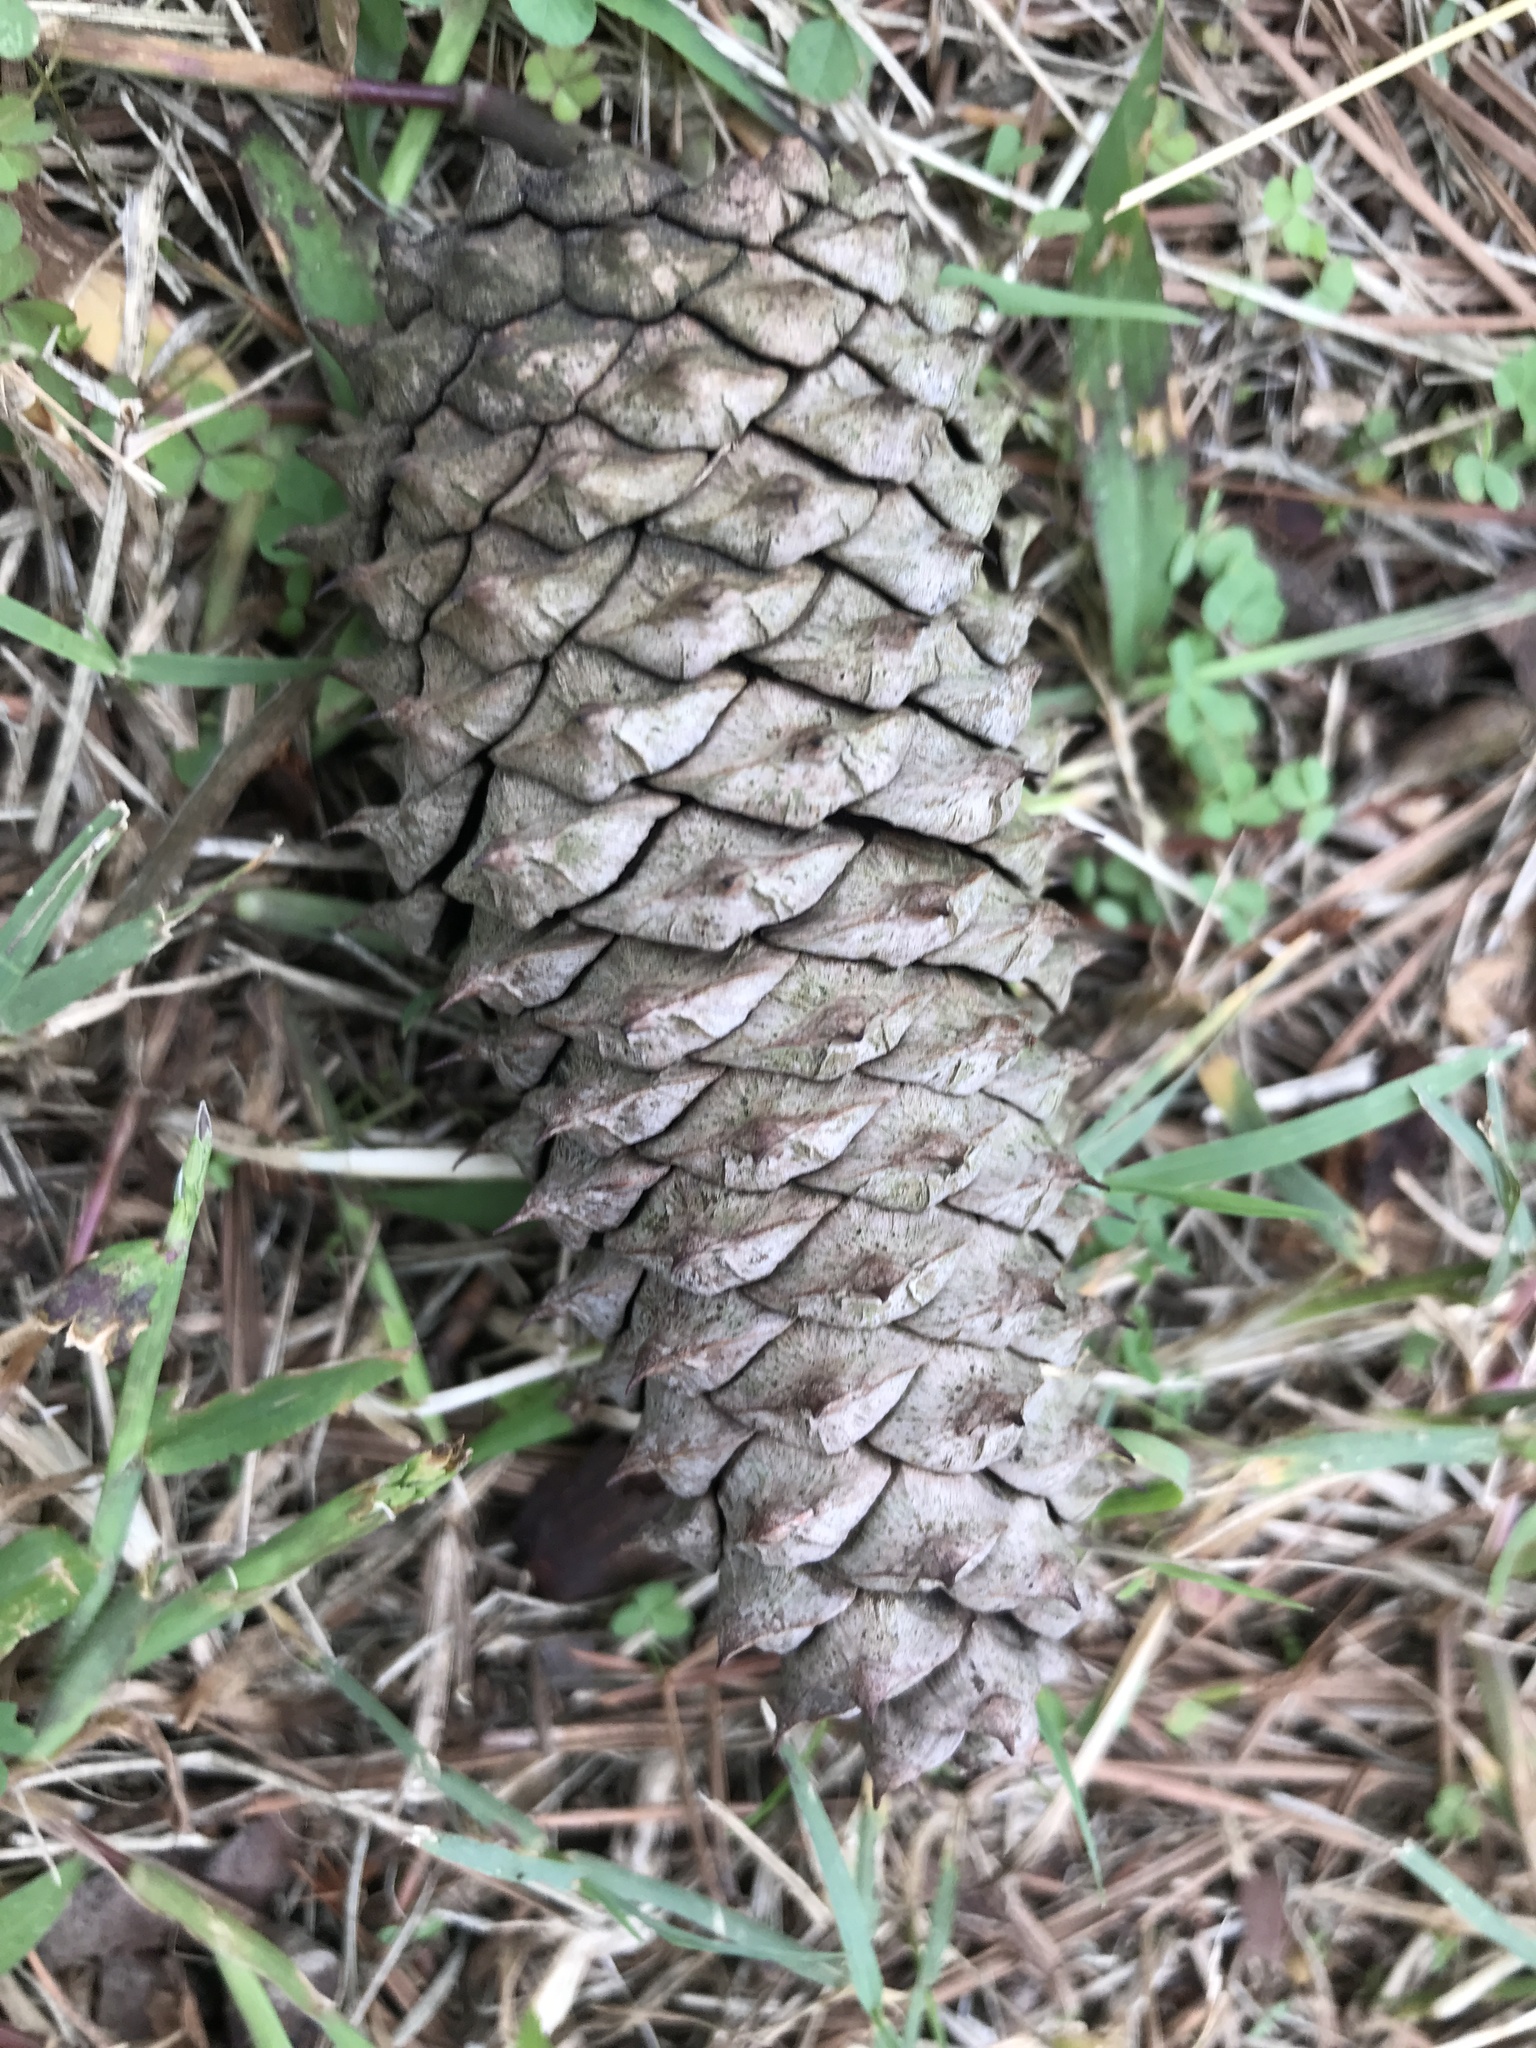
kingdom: Plantae
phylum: Tracheophyta
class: Pinopsida
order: Pinales
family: Pinaceae
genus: Pinus
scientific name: Pinus taeda
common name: Loblolly pine
